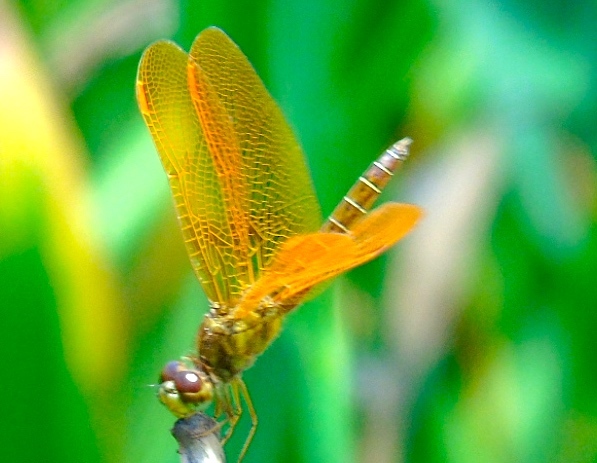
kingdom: Animalia
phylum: Arthropoda
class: Insecta
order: Odonata
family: Libellulidae
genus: Perithemis
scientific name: Perithemis intensa
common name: Mexican amberwing
